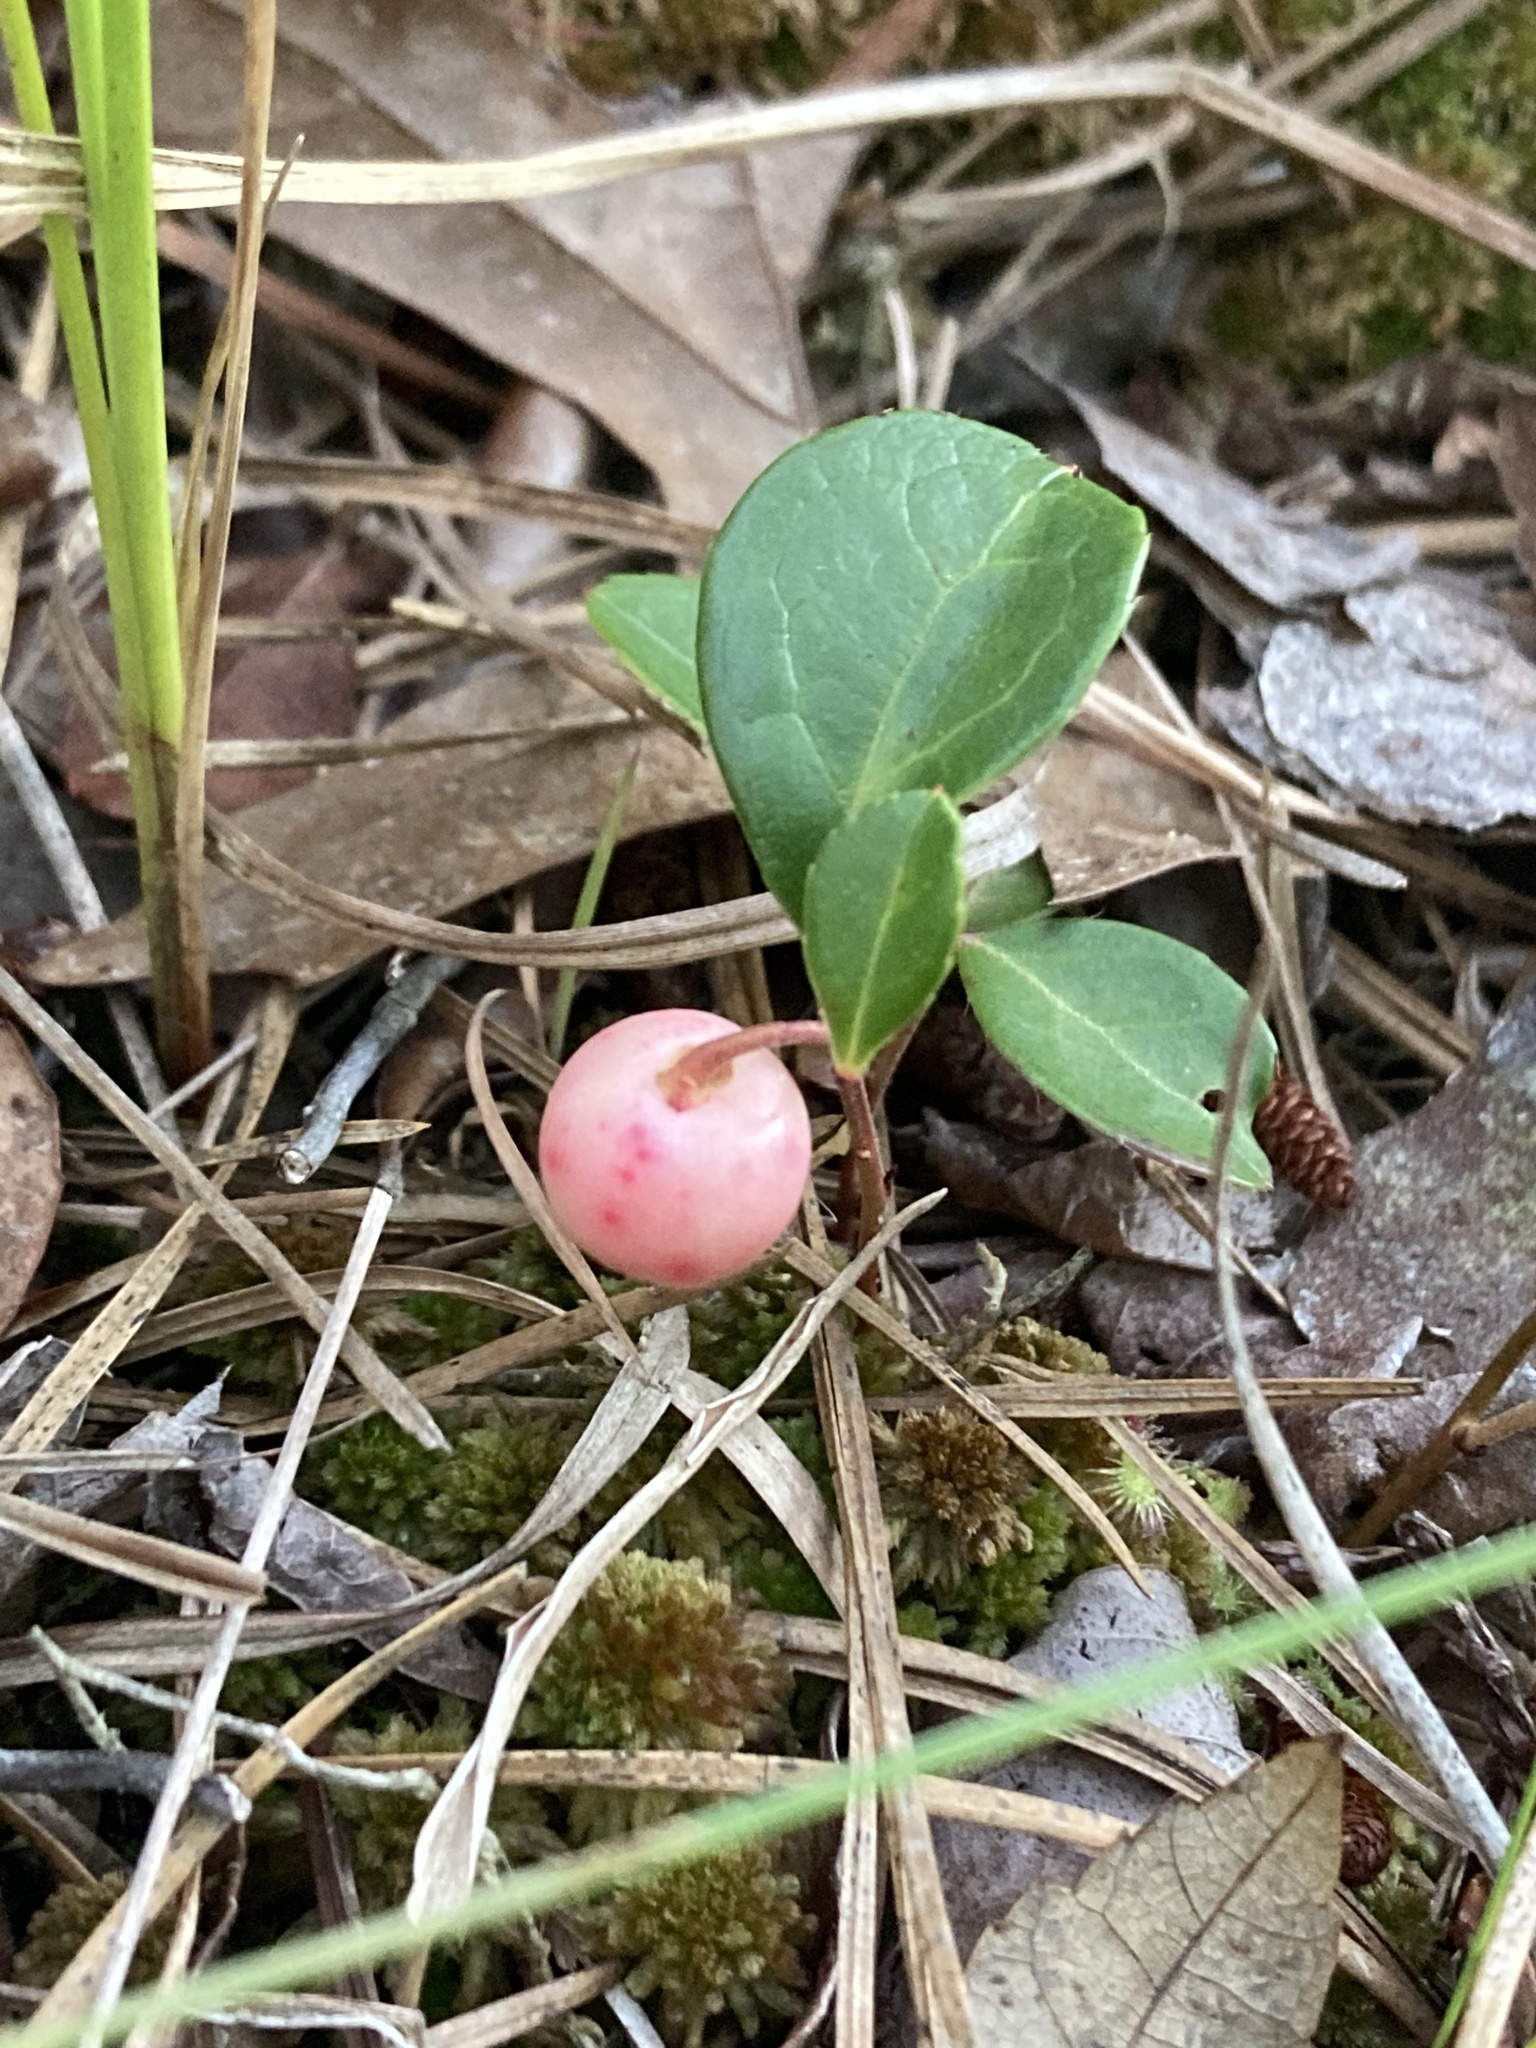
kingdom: Plantae
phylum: Tracheophyta
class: Magnoliopsida
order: Ericales
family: Ericaceae
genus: Gaultheria
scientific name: Gaultheria procumbens
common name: Checkerberry
